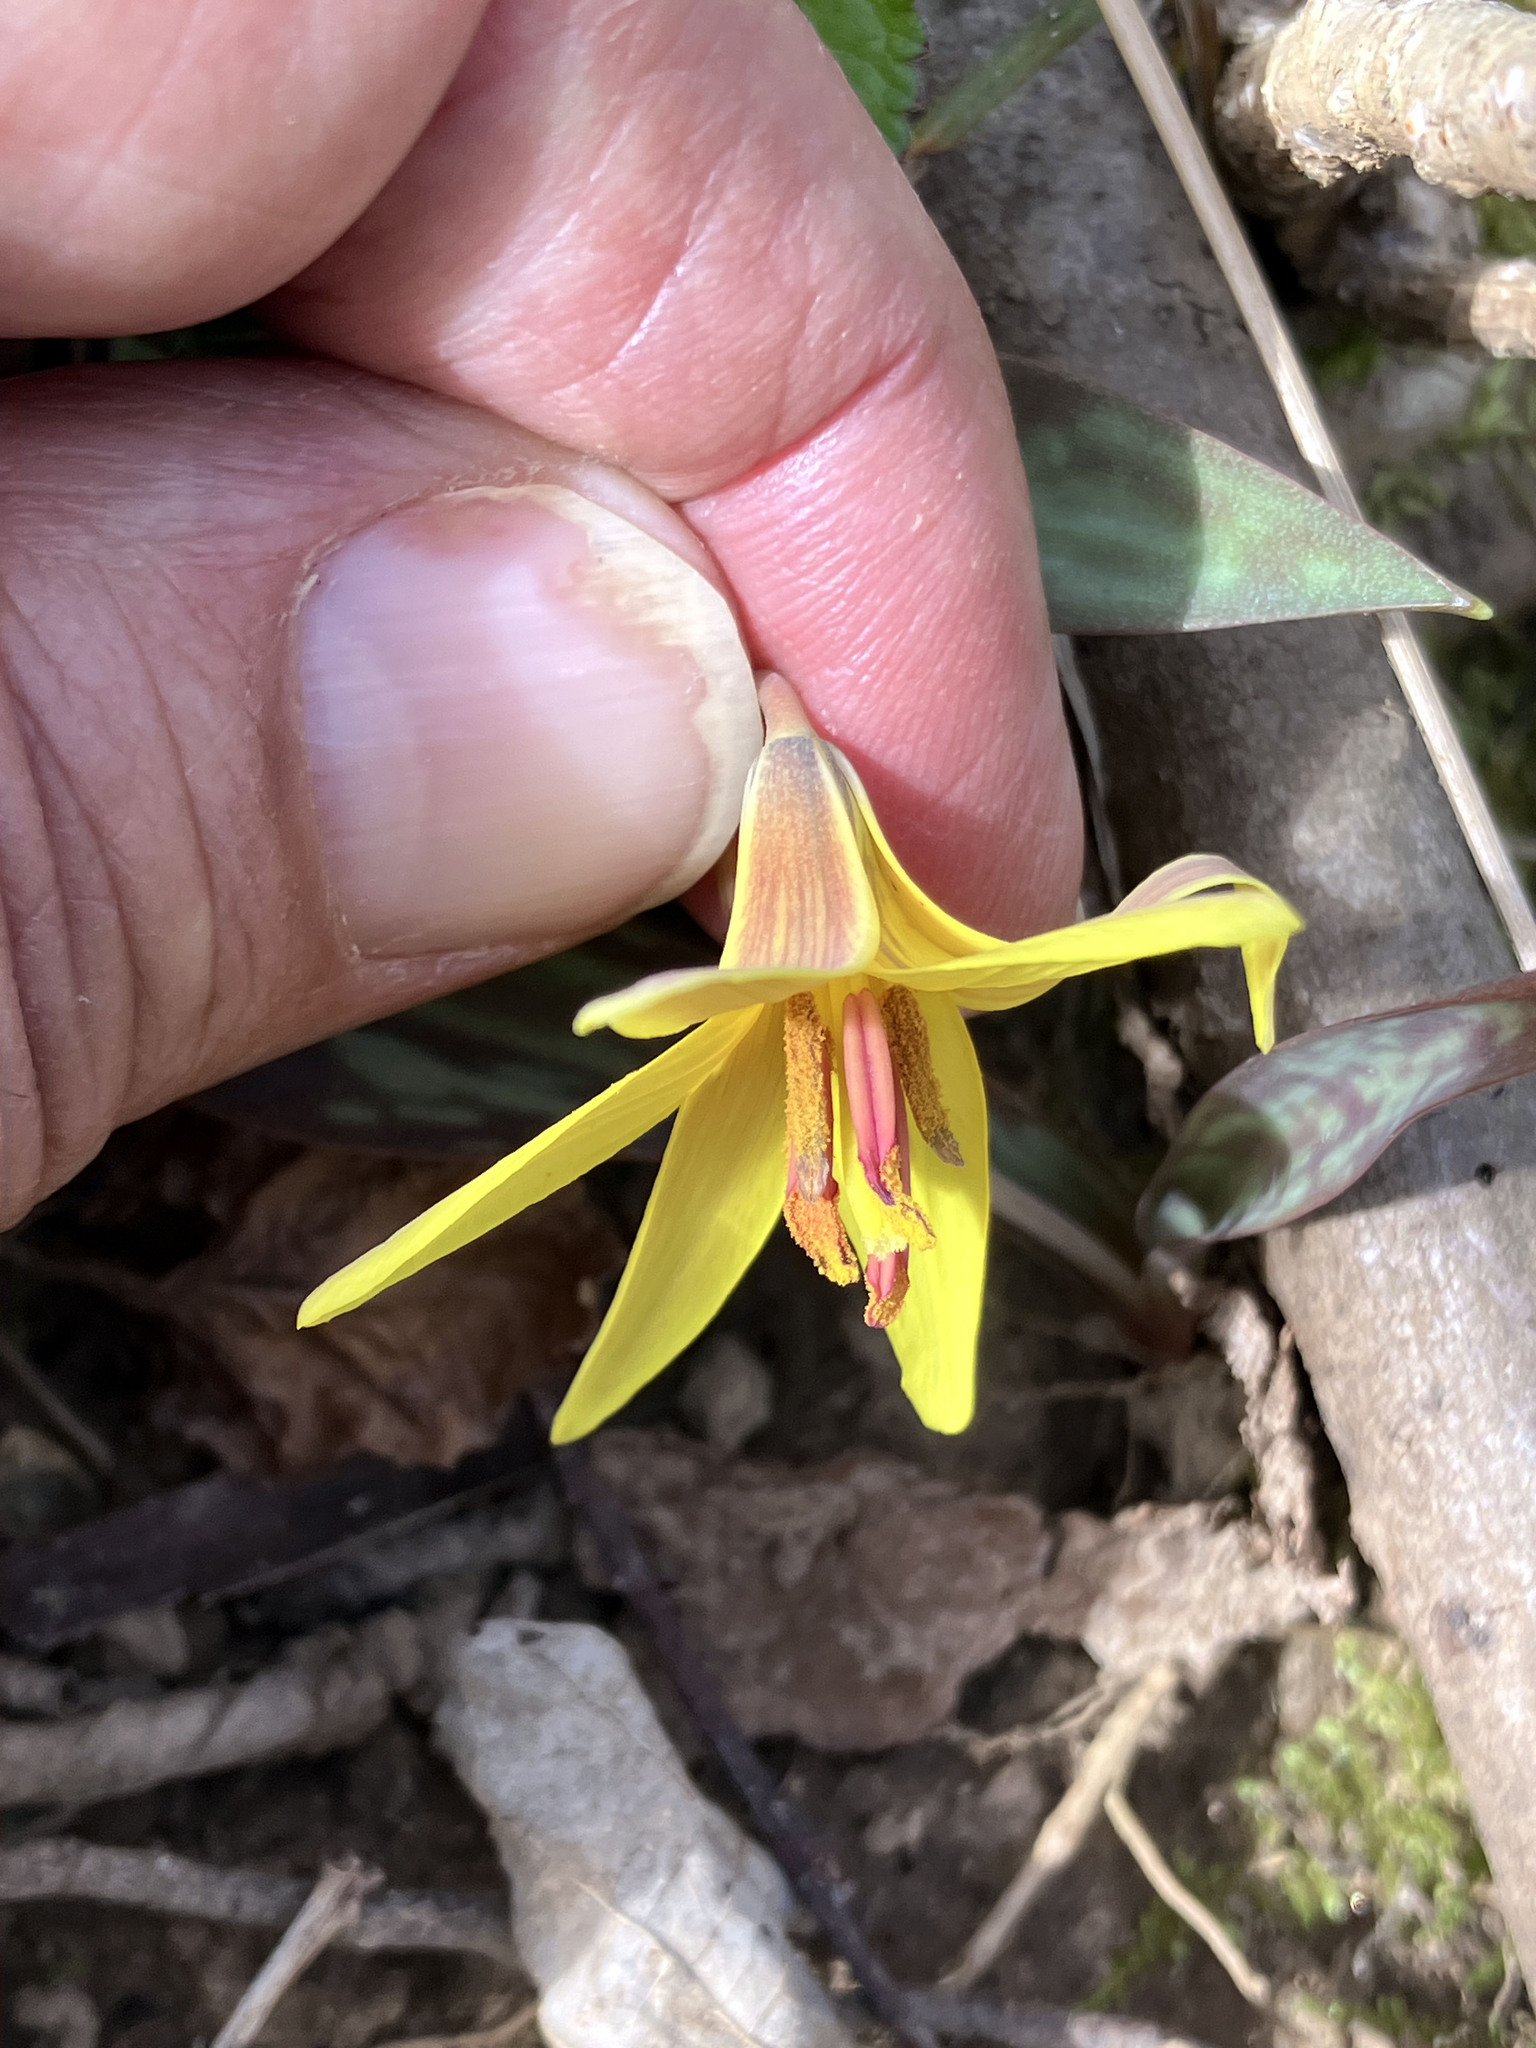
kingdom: Plantae
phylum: Tracheophyta
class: Liliopsida
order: Liliales
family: Liliaceae
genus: Erythronium
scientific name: Erythronium americanum
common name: Yellow adder's-tongue
